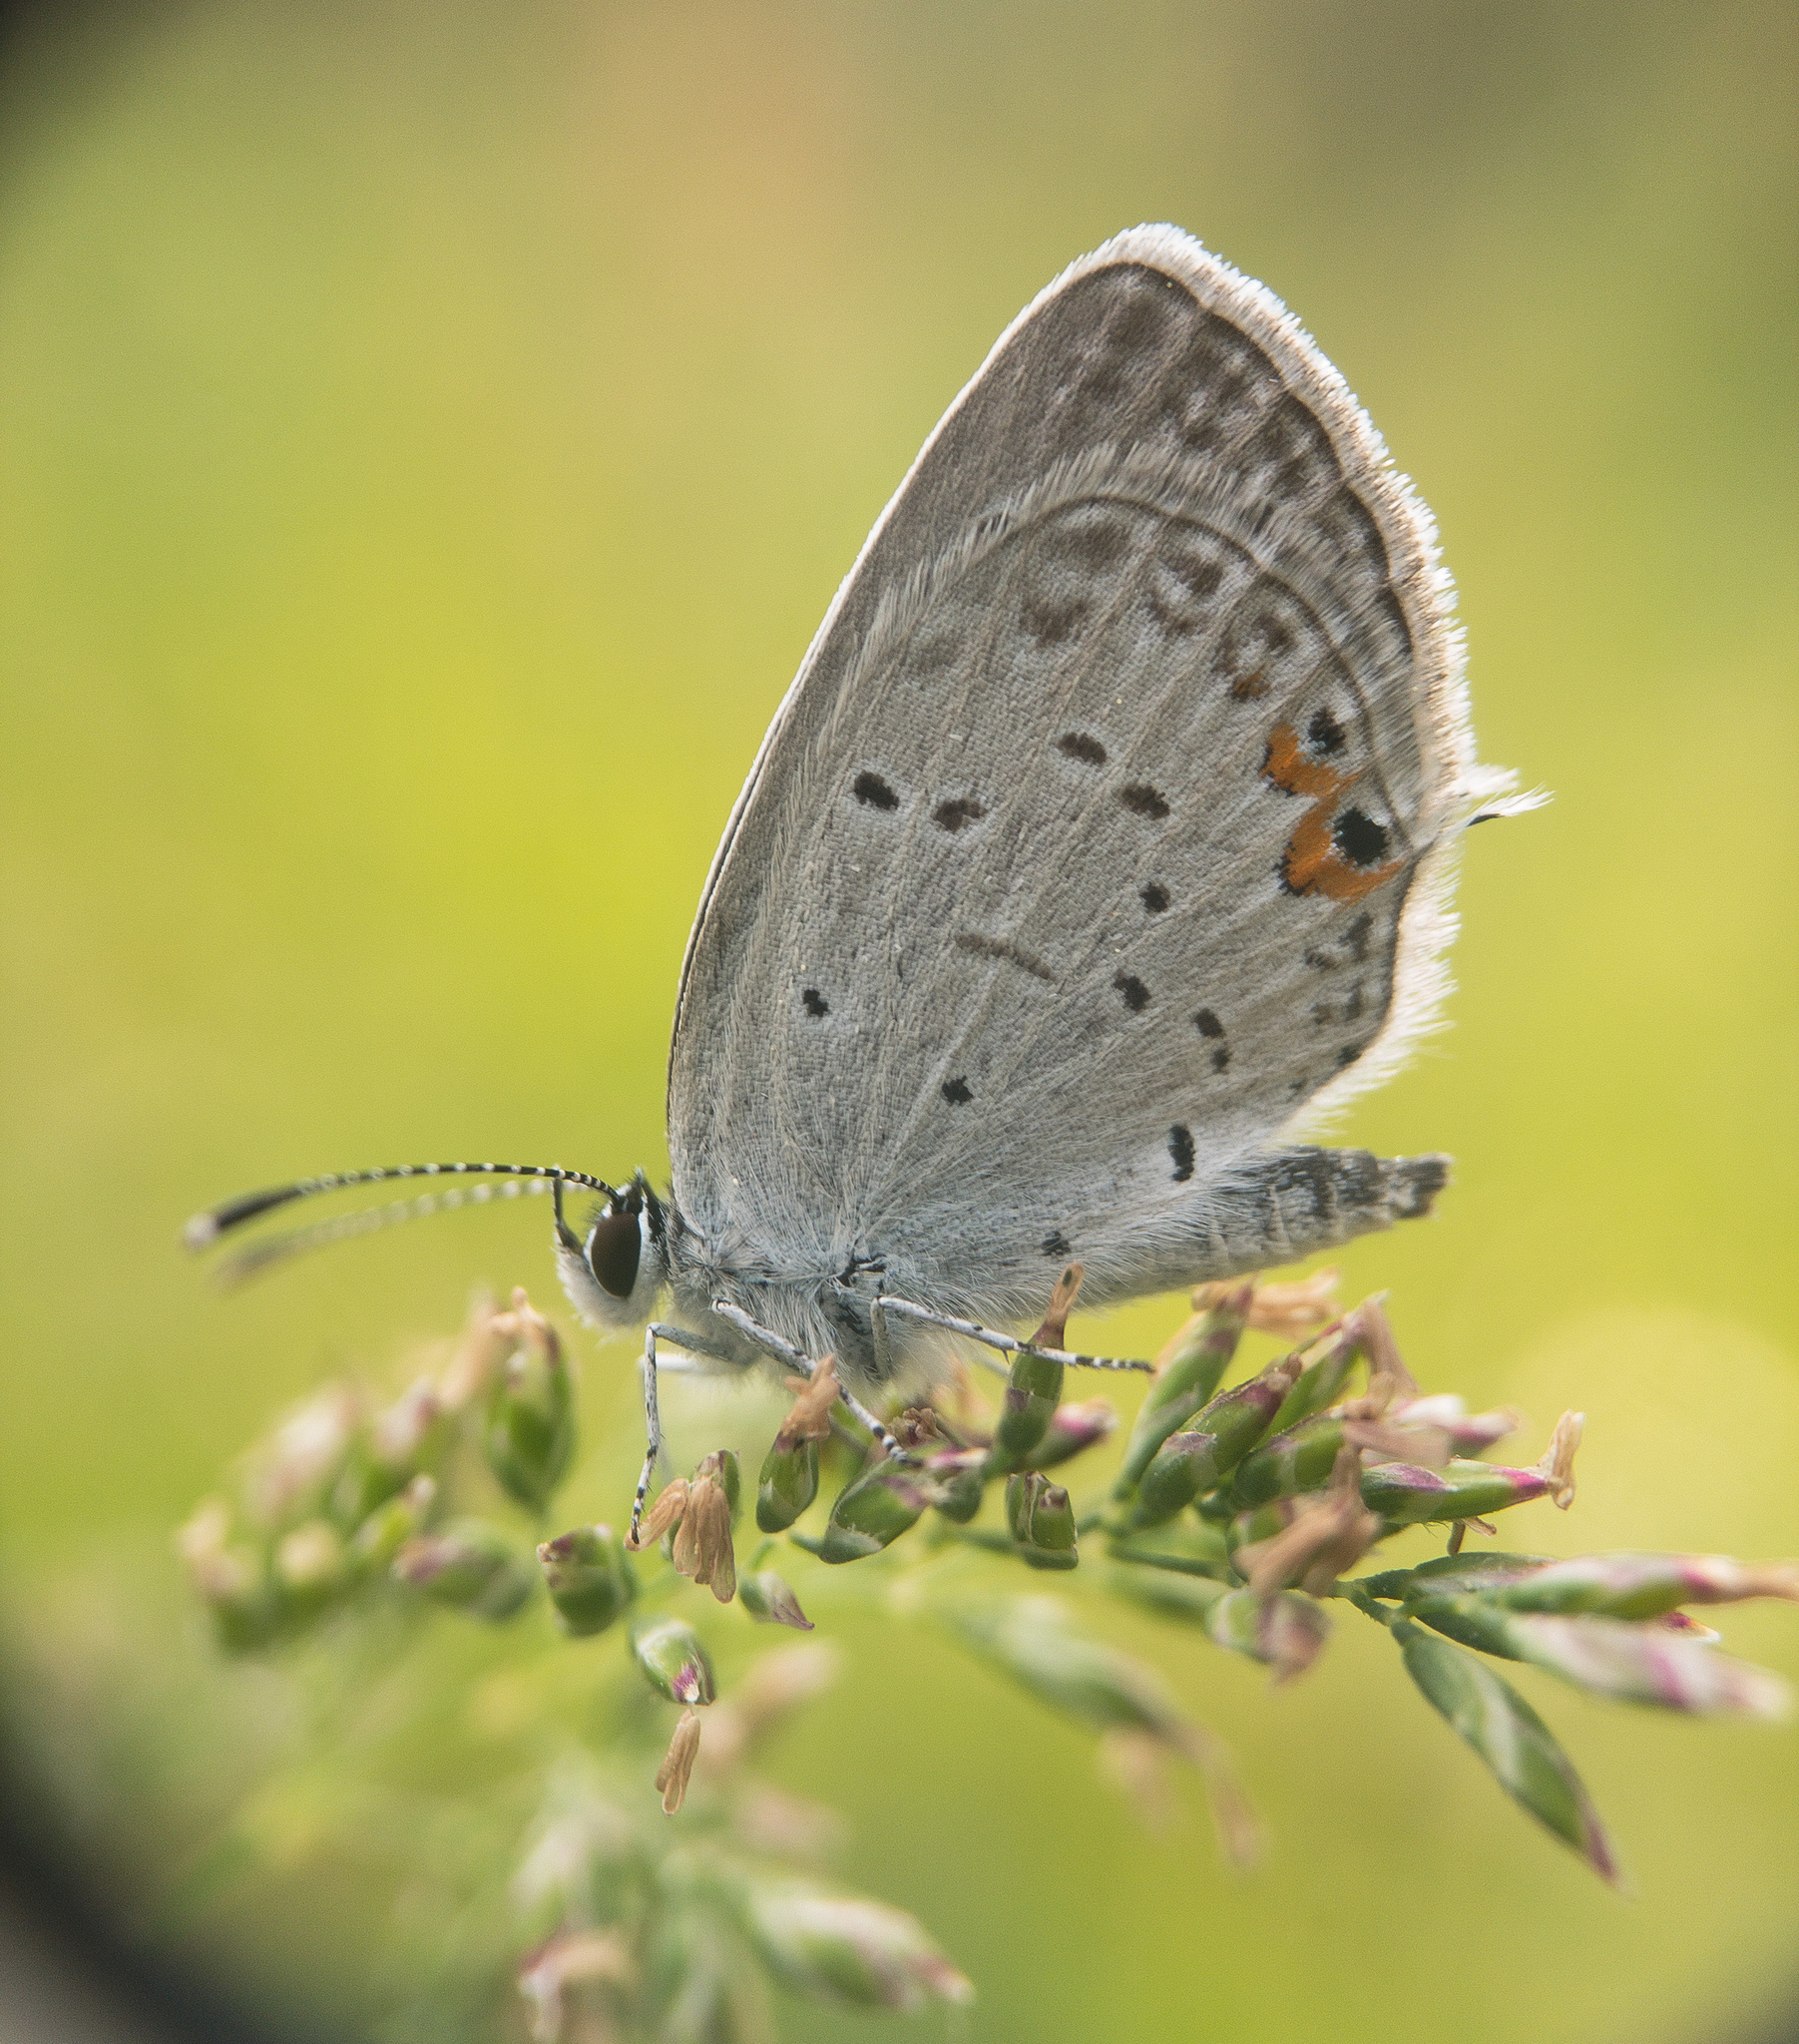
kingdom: Animalia
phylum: Arthropoda
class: Insecta
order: Lepidoptera
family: Lycaenidae
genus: Elkalyce
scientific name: Elkalyce comyntas
